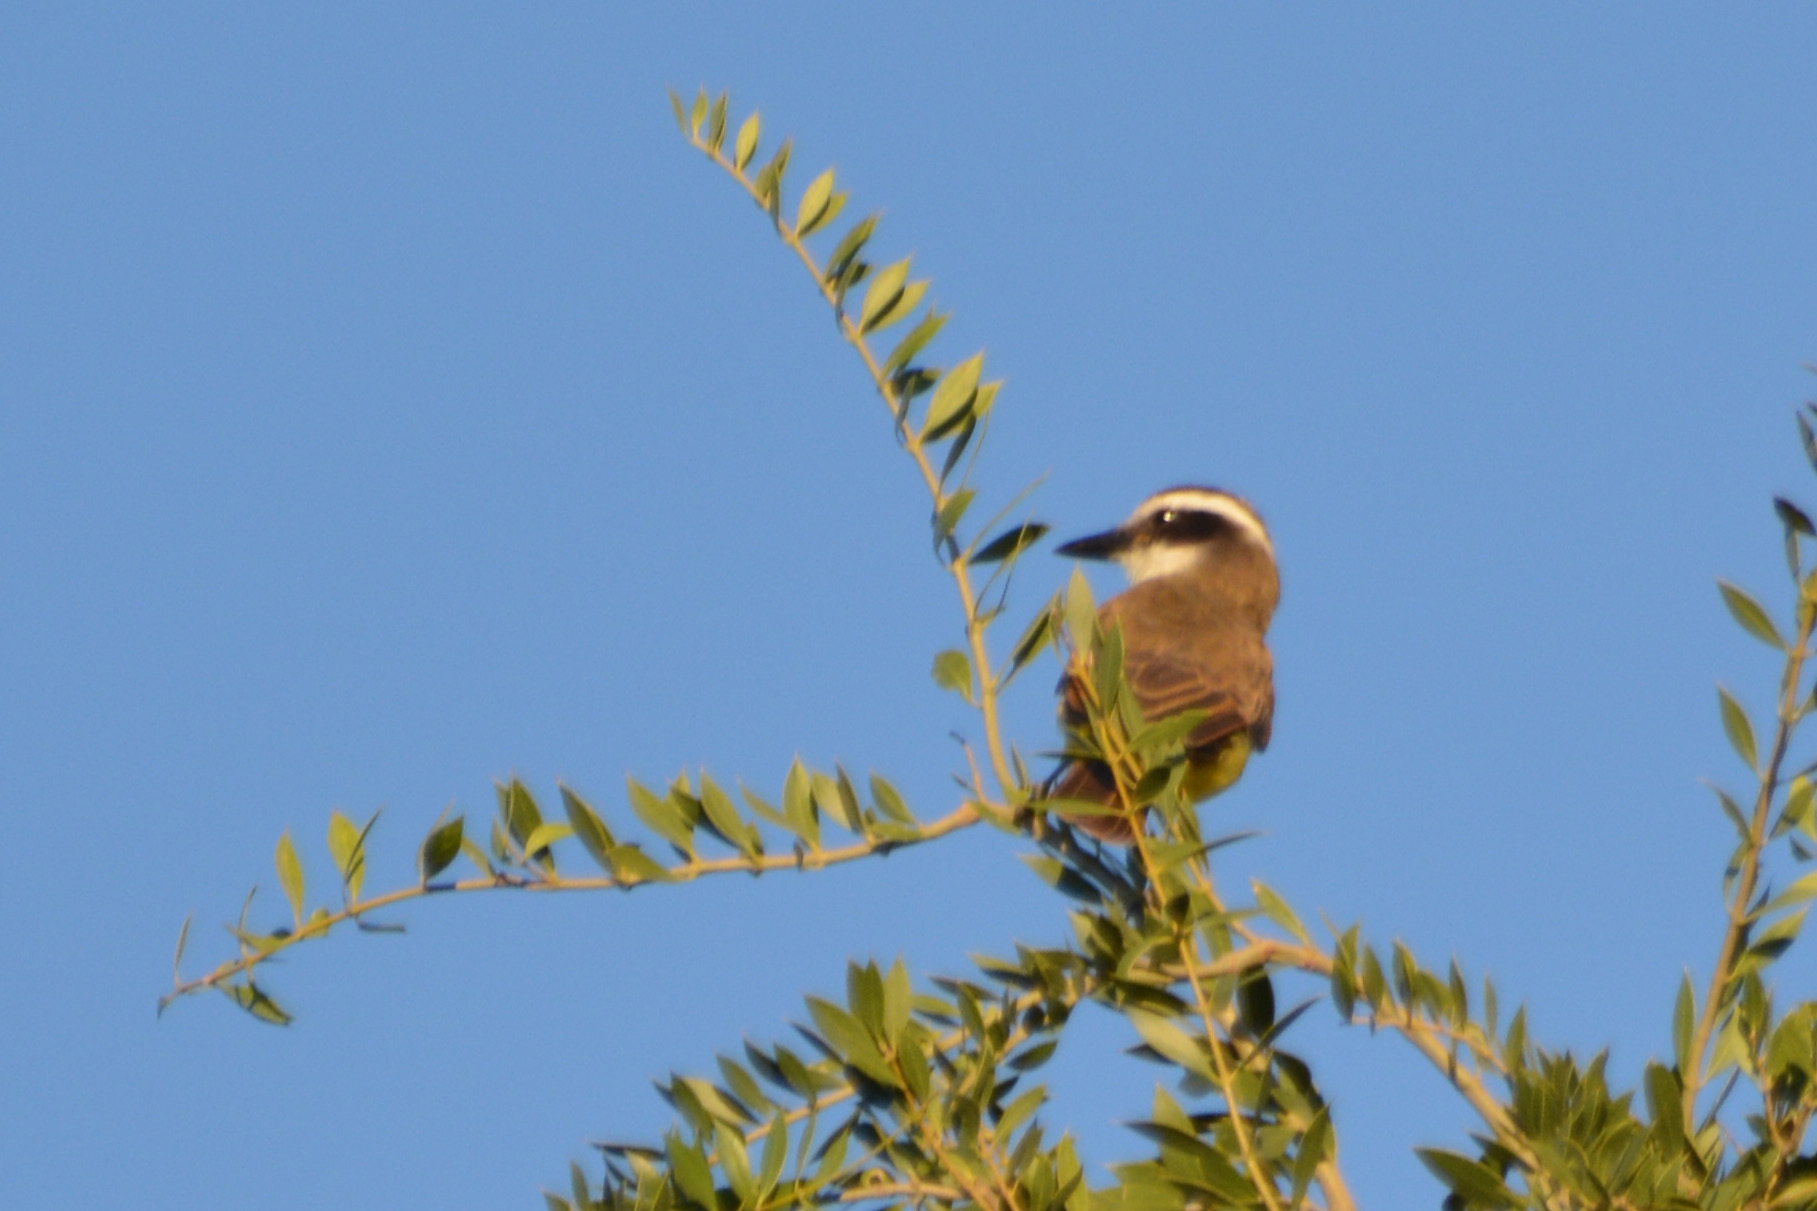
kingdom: Animalia
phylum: Chordata
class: Aves
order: Passeriformes
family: Tyrannidae
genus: Pitangus
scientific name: Pitangus sulphuratus
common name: Great kiskadee
